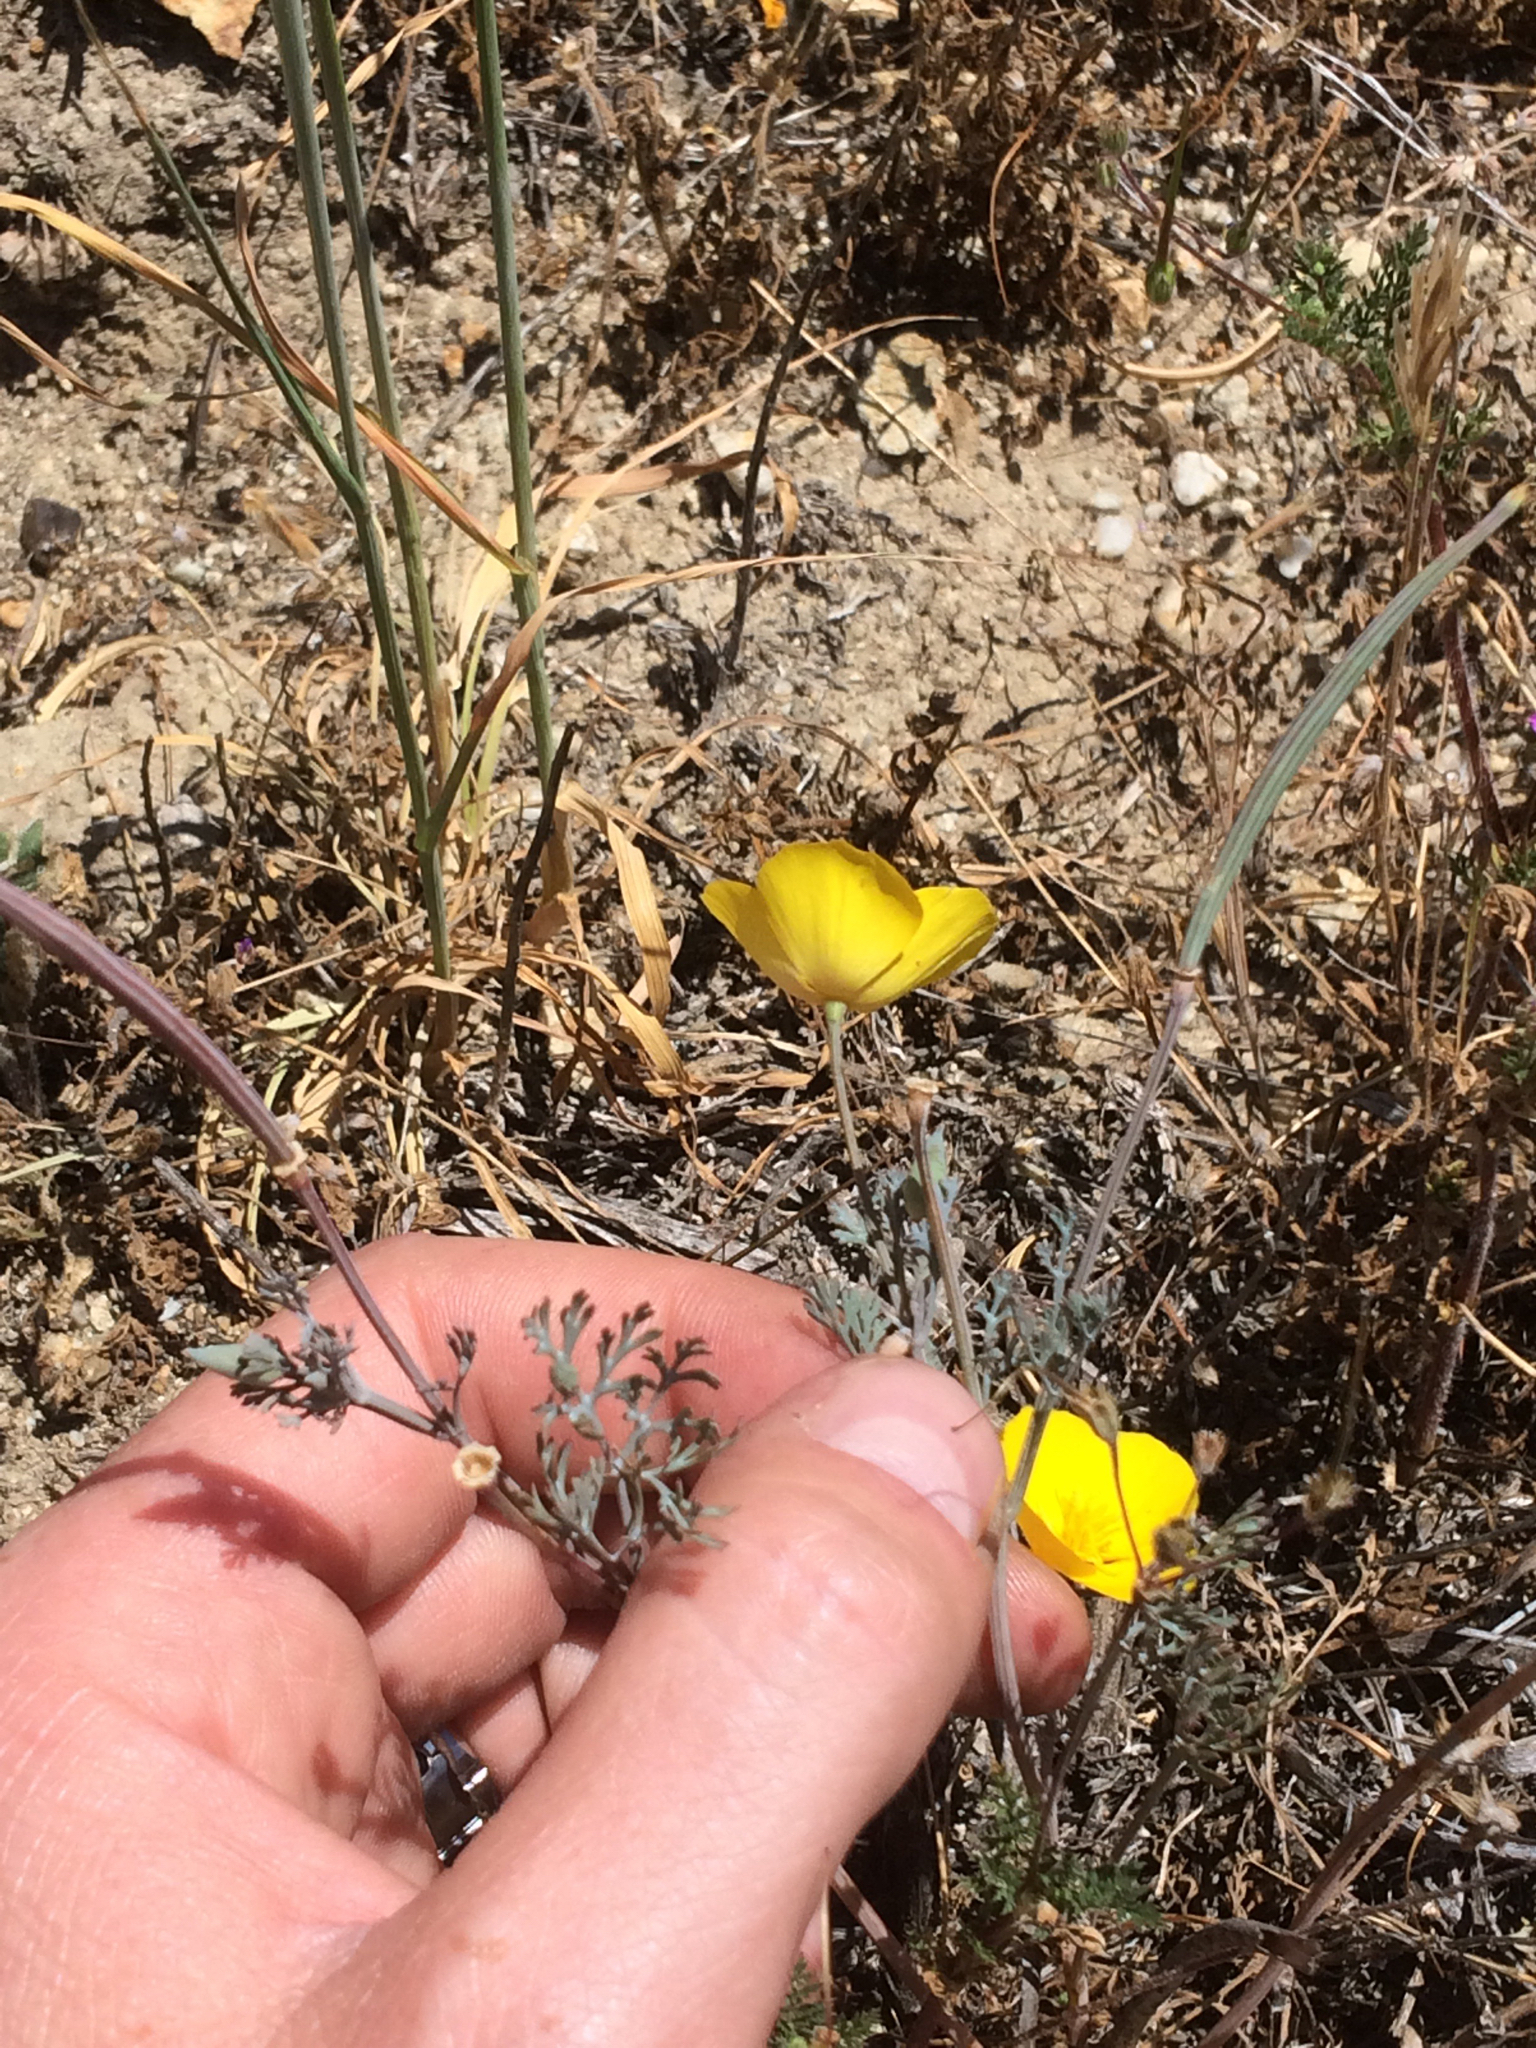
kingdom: Plantae
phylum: Tracheophyta
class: Magnoliopsida
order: Ranunculales
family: Papaveraceae
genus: Eschscholzia
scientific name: Eschscholzia californica
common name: California poppy
